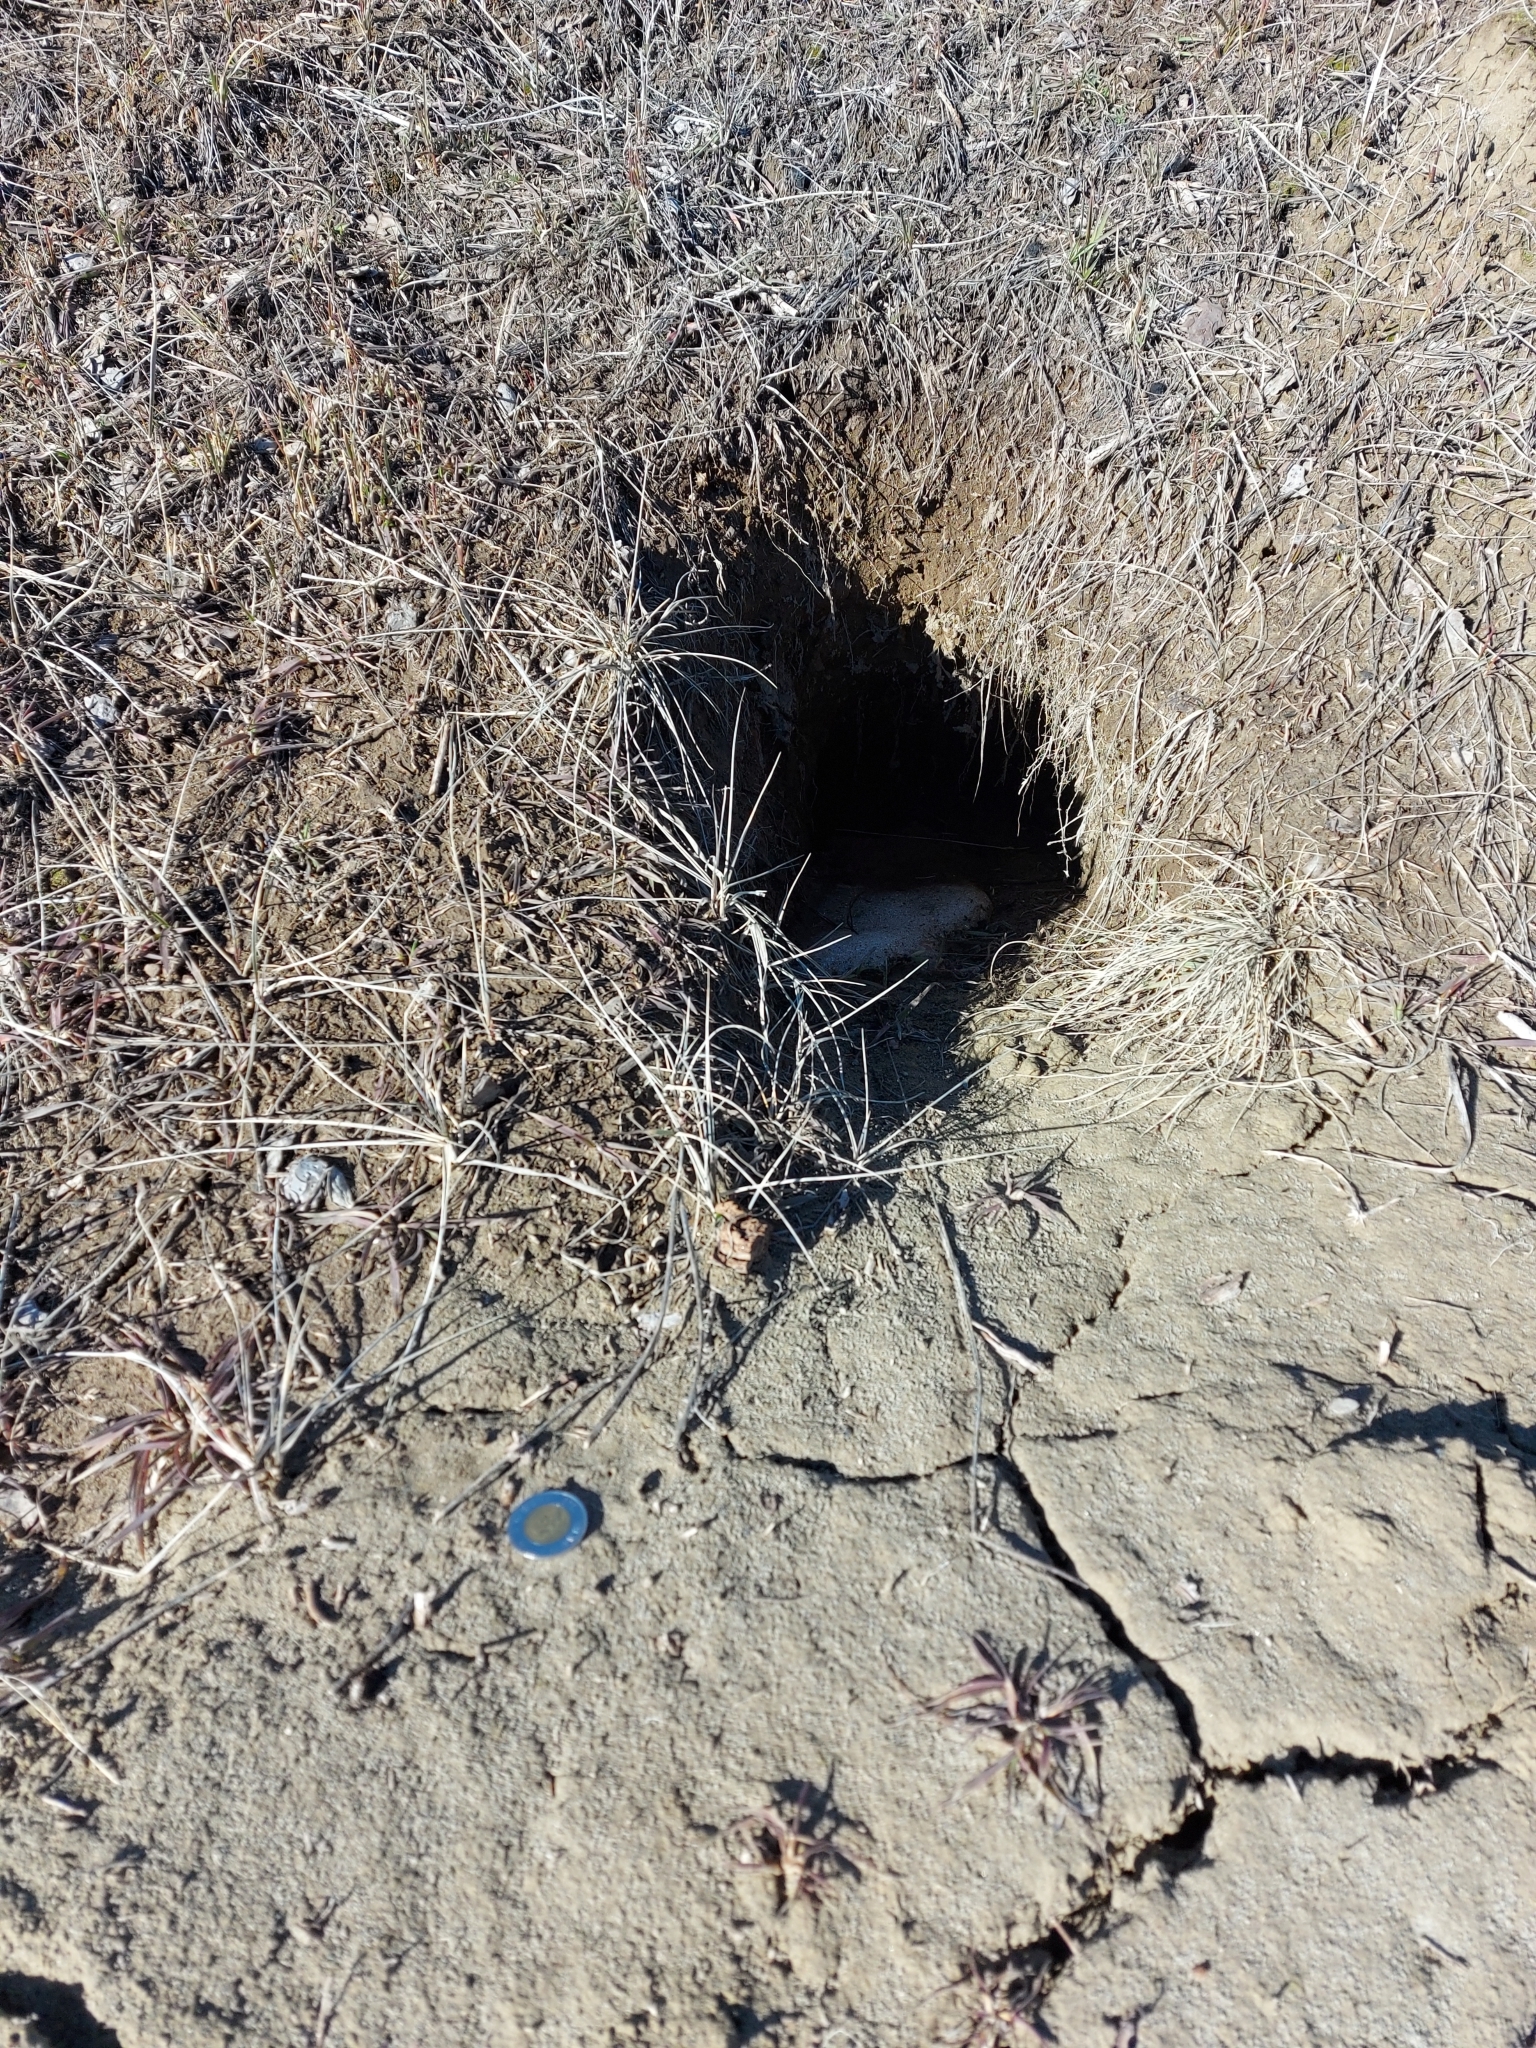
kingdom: Animalia
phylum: Chordata
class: Mammalia
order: Carnivora
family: Mustelidae
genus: Taxidea
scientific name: Taxidea taxus
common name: American badger
